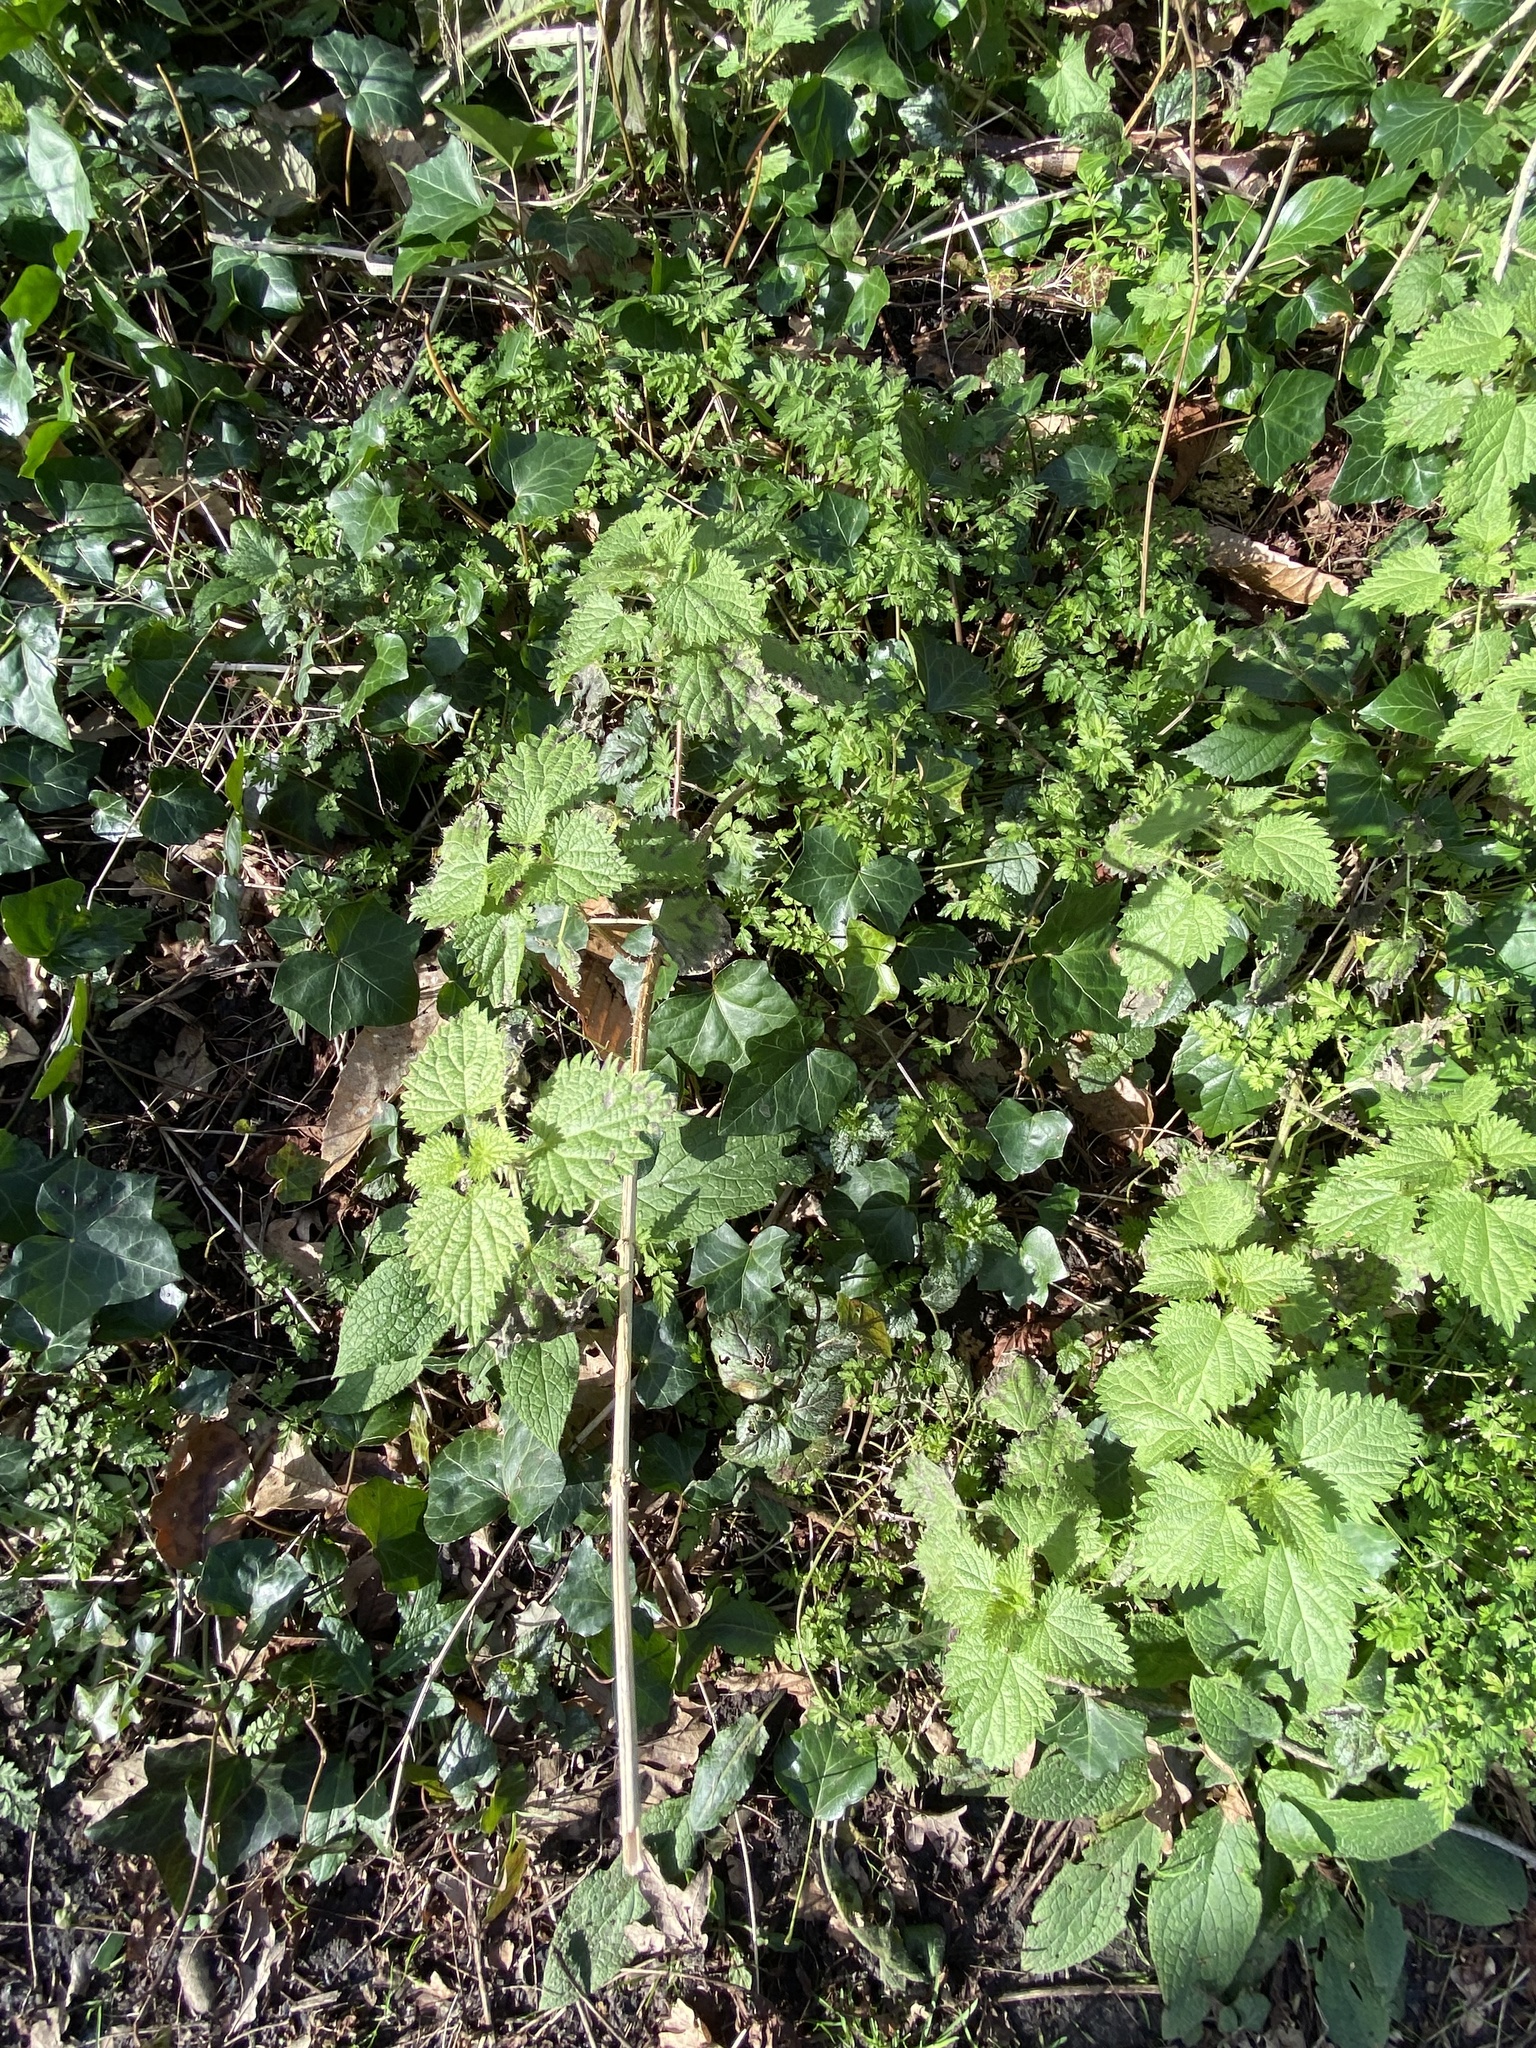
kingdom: Plantae
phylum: Tracheophyta
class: Magnoliopsida
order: Rosales
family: Urticaceae
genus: Urtica
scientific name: Urtica dioica
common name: Common nettle
